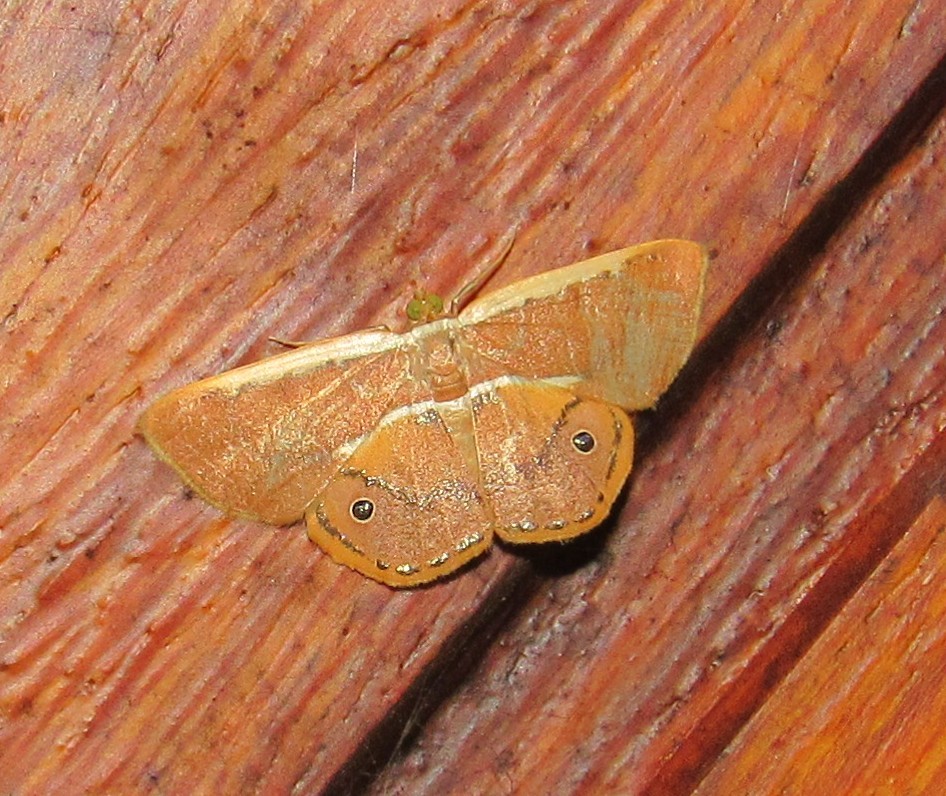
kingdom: Animalia
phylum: Arthropoda
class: Insecta
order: Lepidoptera
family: Geometridae
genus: Opisthoxia
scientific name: Opisthoxia claudiaria
